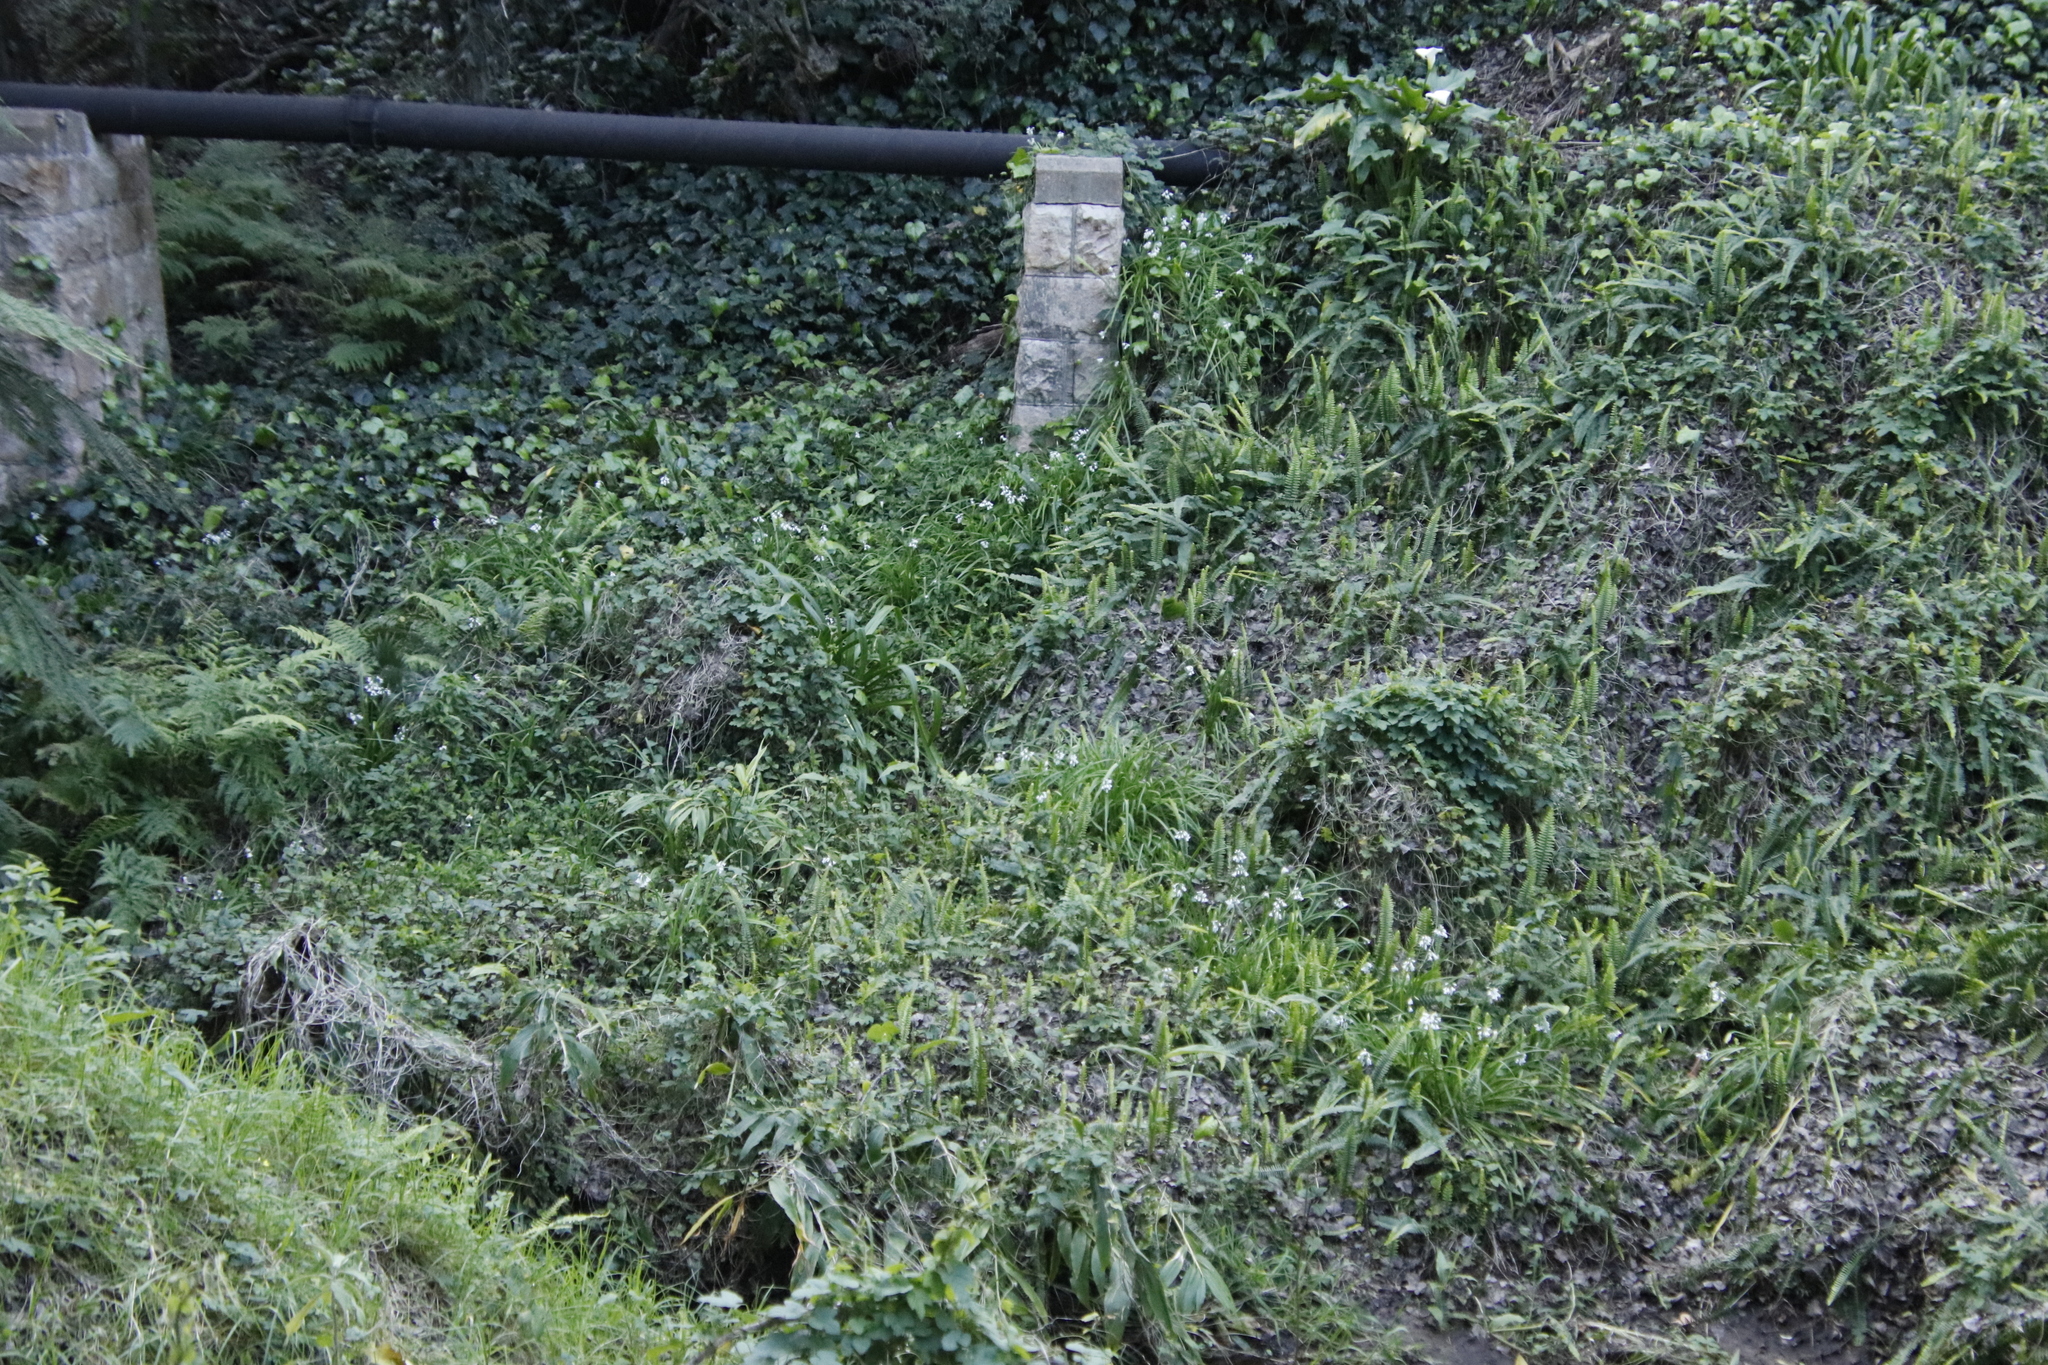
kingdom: Plantae
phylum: Tracheophyta
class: Liliopsida
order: Asparagales
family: Amaryllidaceae
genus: Allium
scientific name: Allium triquetrum
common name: Three-cornered garlic
